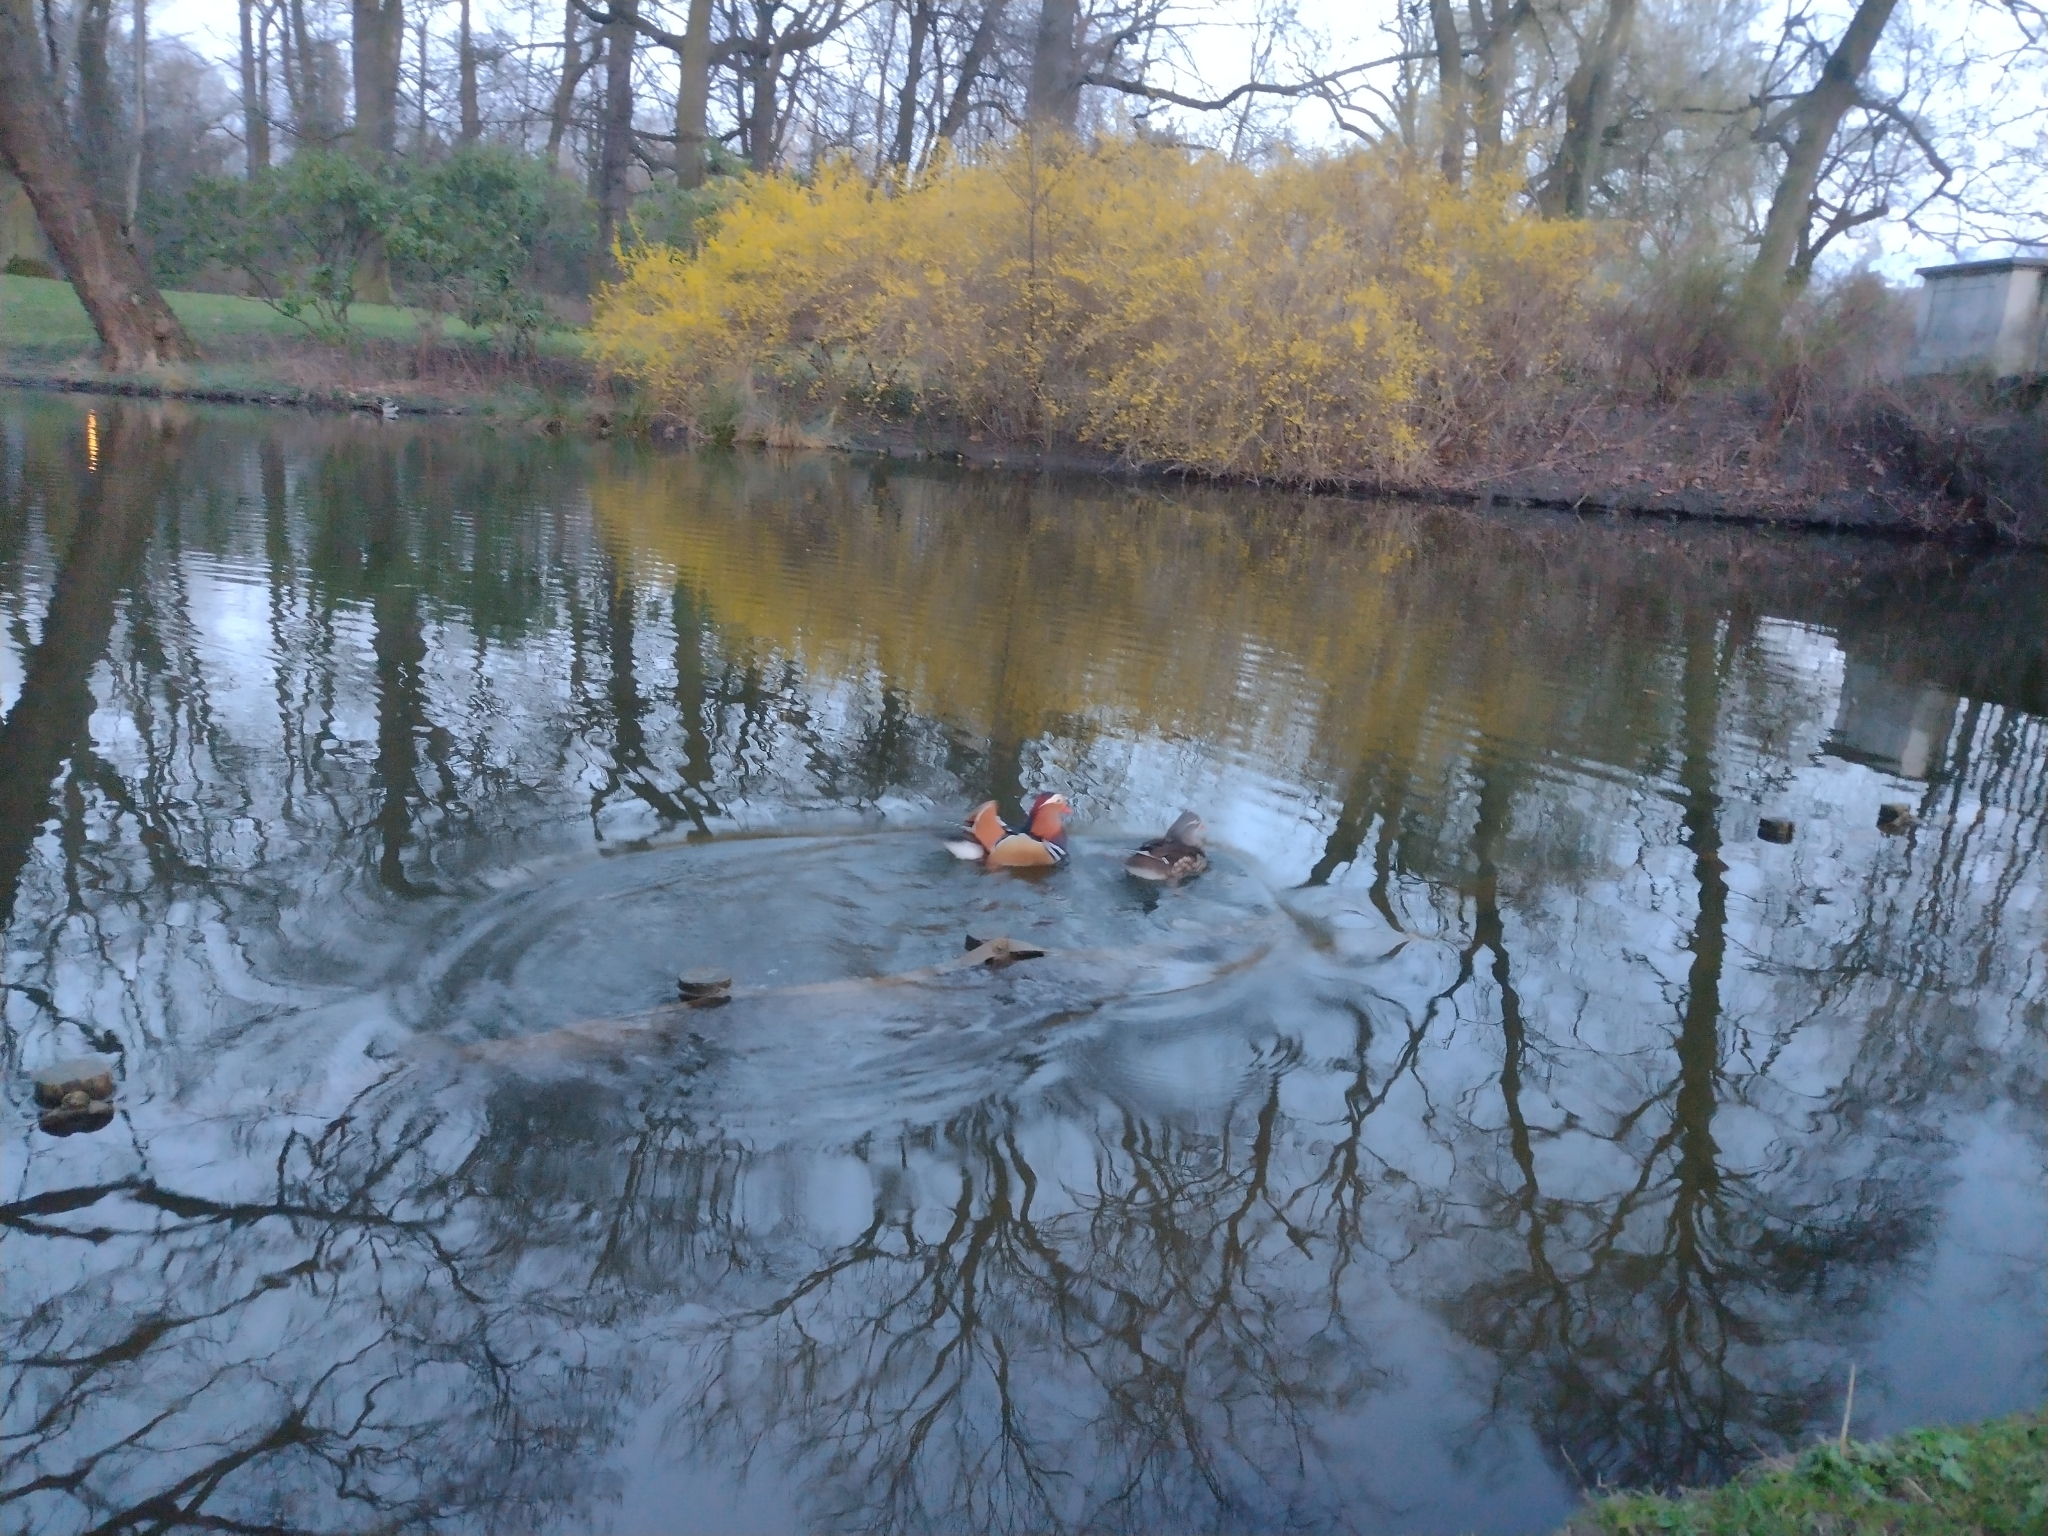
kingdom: Animalia
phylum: Chordata
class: Aves
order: Anseriformes
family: Anatidae
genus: Aix
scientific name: Aix galericulata
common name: Mandarin duck
